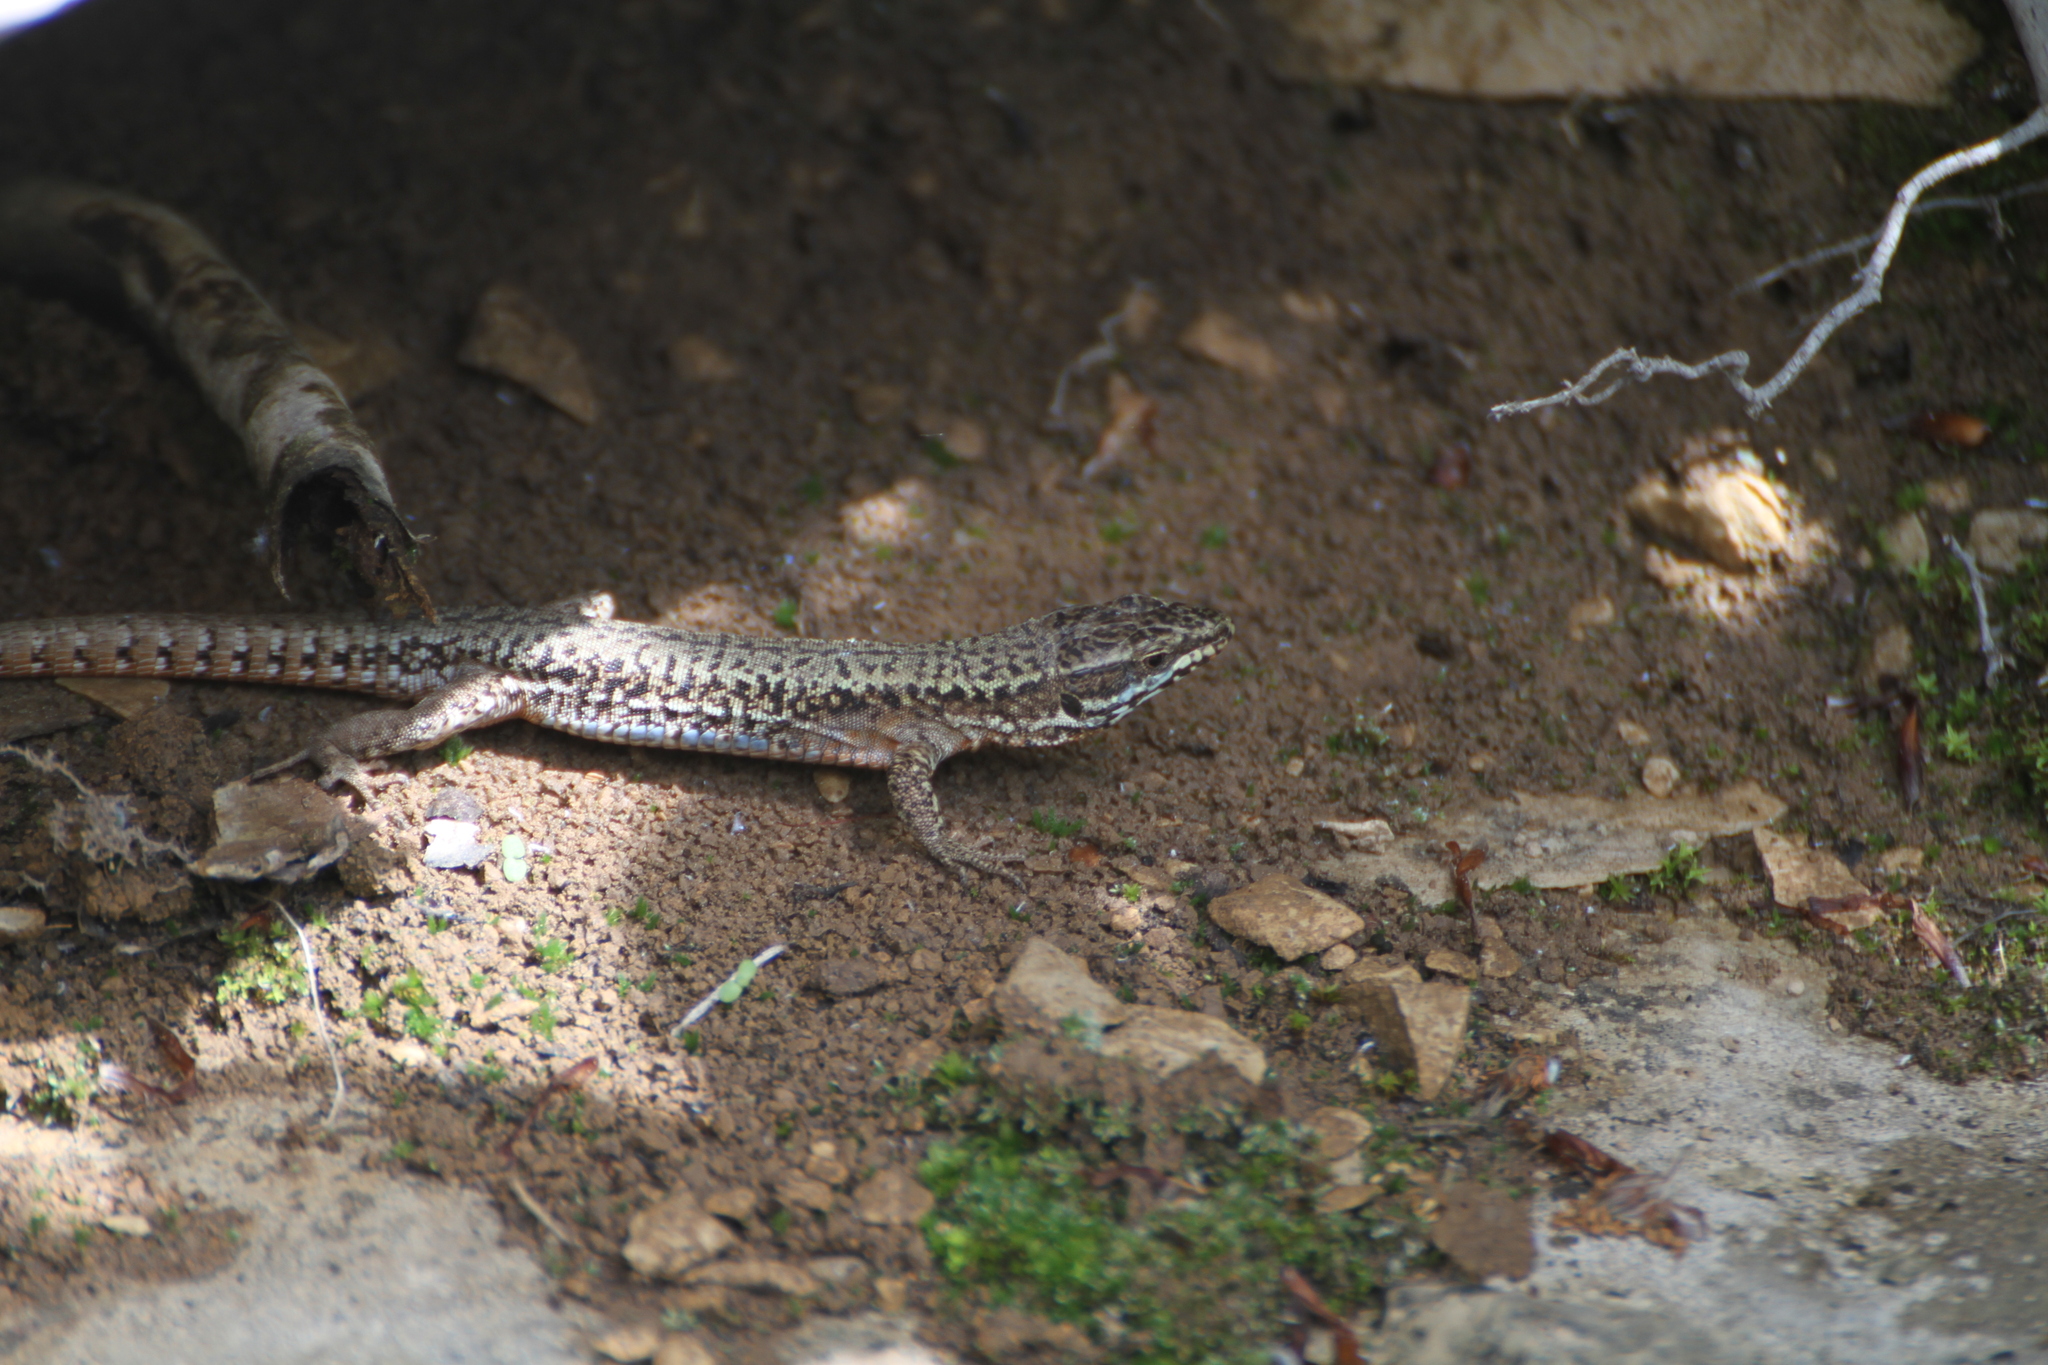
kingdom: Animalia
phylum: Chordata
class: Squamata
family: Lacertidae
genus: Podarcis
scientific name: Podarcis muralis
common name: Common wall lizard
